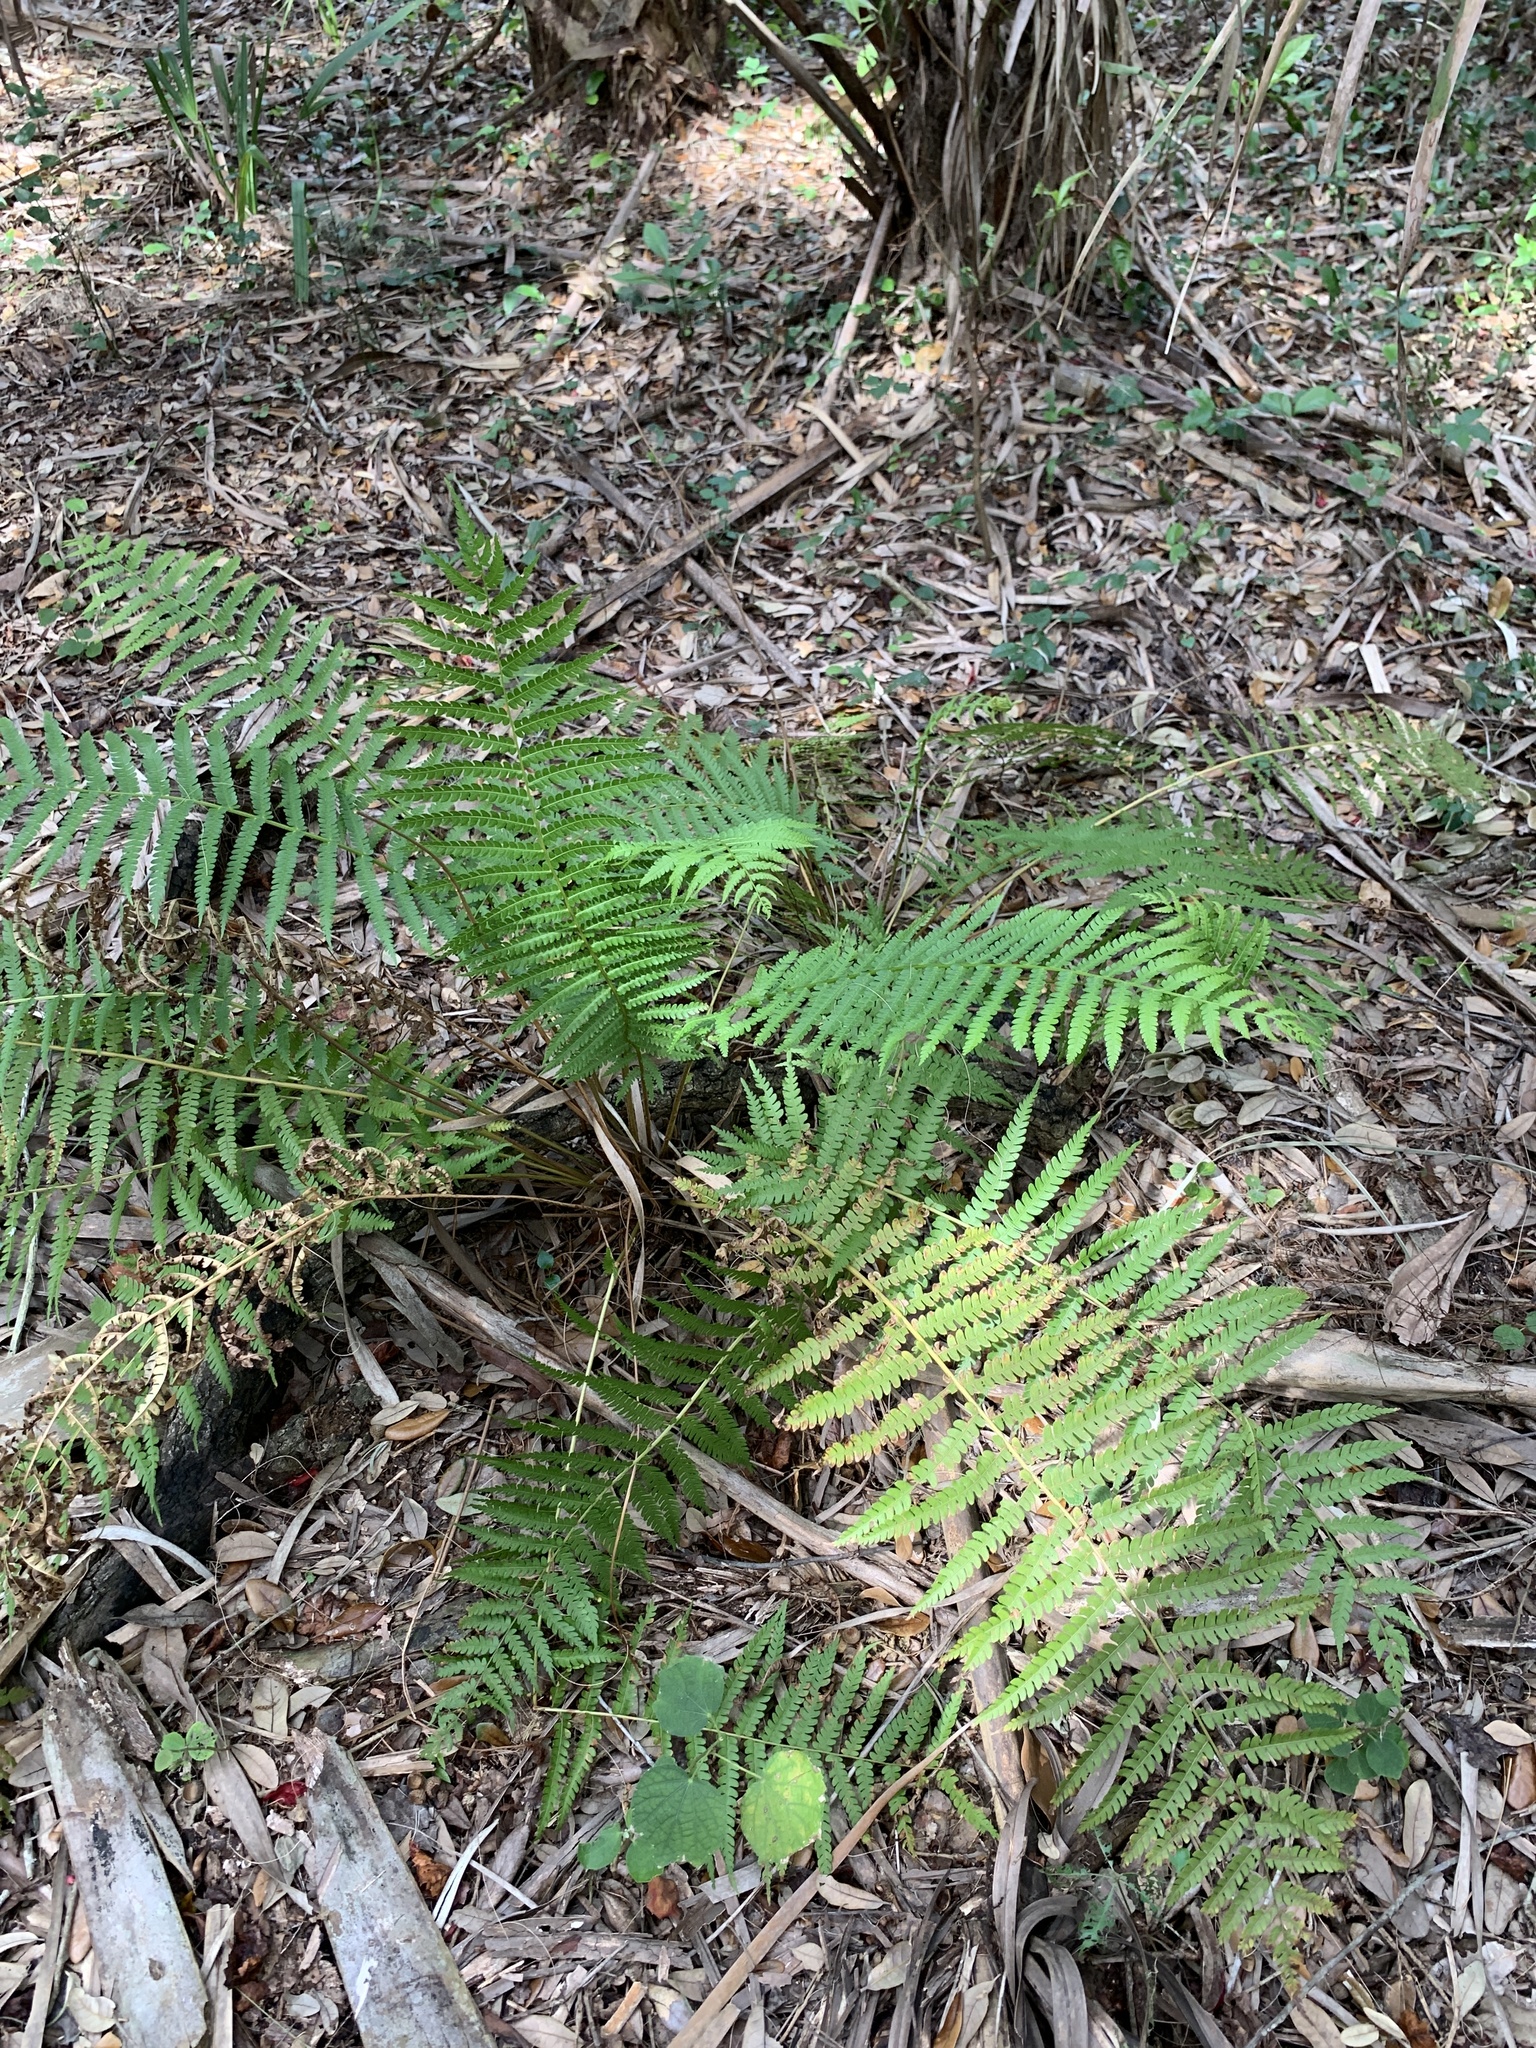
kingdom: Plantae
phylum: Tracheophyta
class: Polypodiopsida
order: Osmundales
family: Osmundaceae
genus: Osmundastrum
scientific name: Osmundastrum cinnamomeum
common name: Cinnamon fern
